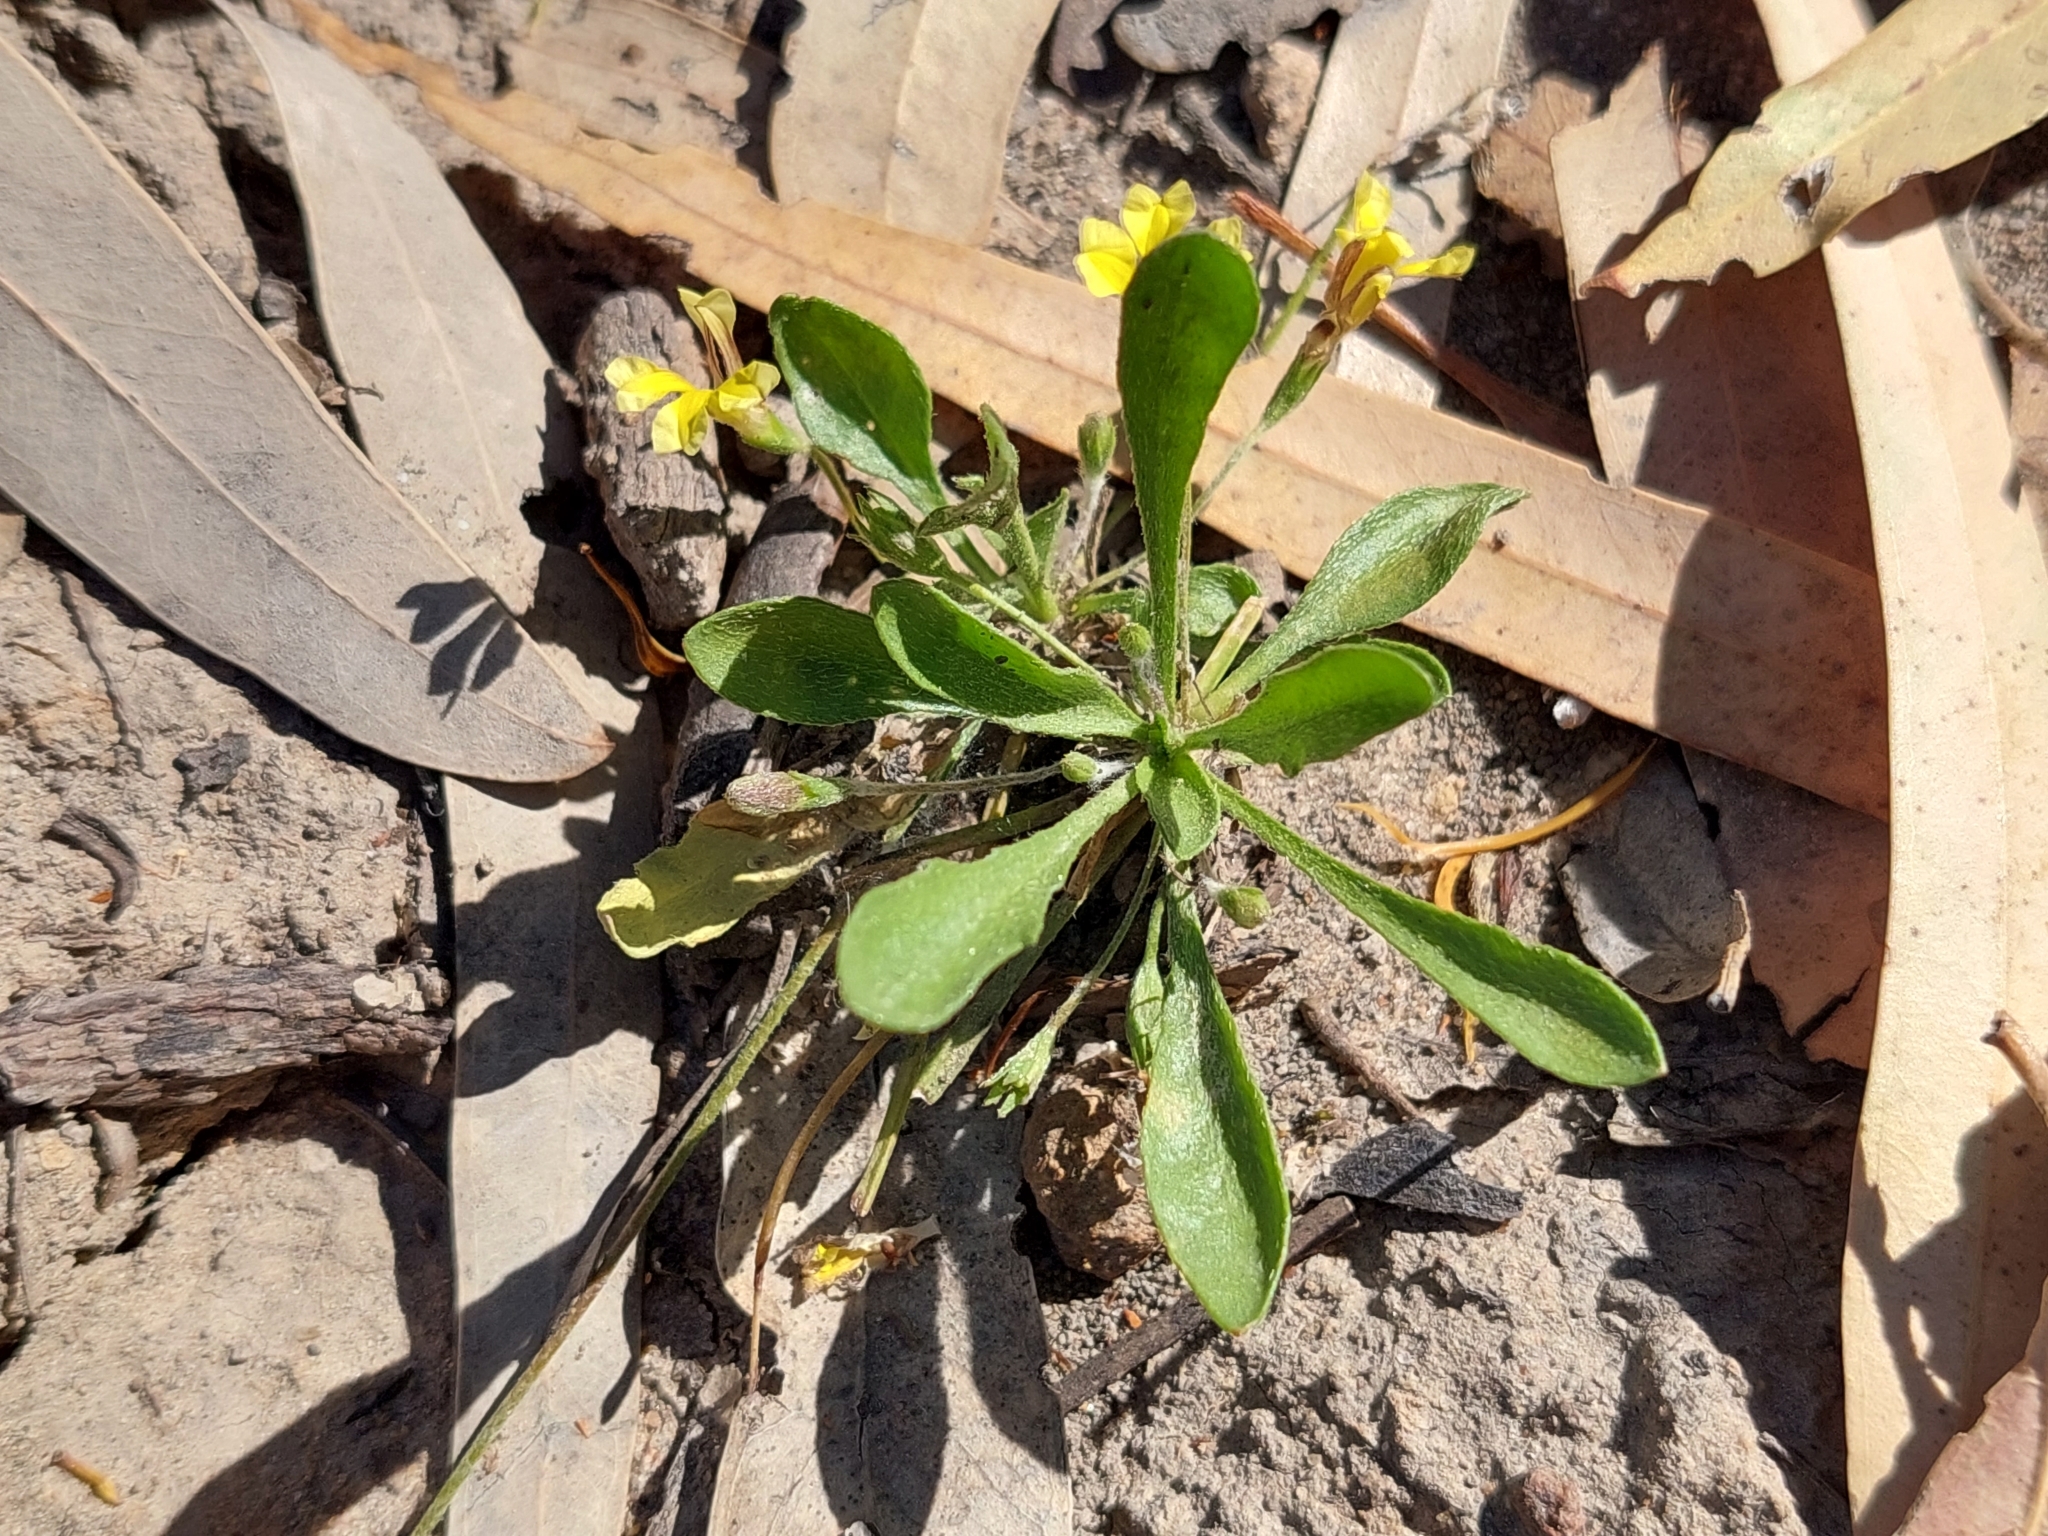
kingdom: Plantae
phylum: Tracheophyta
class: Magnoliopsida
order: Asterales
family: Goodeniaceae
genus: Goodenia
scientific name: Goodenia fascicularis
